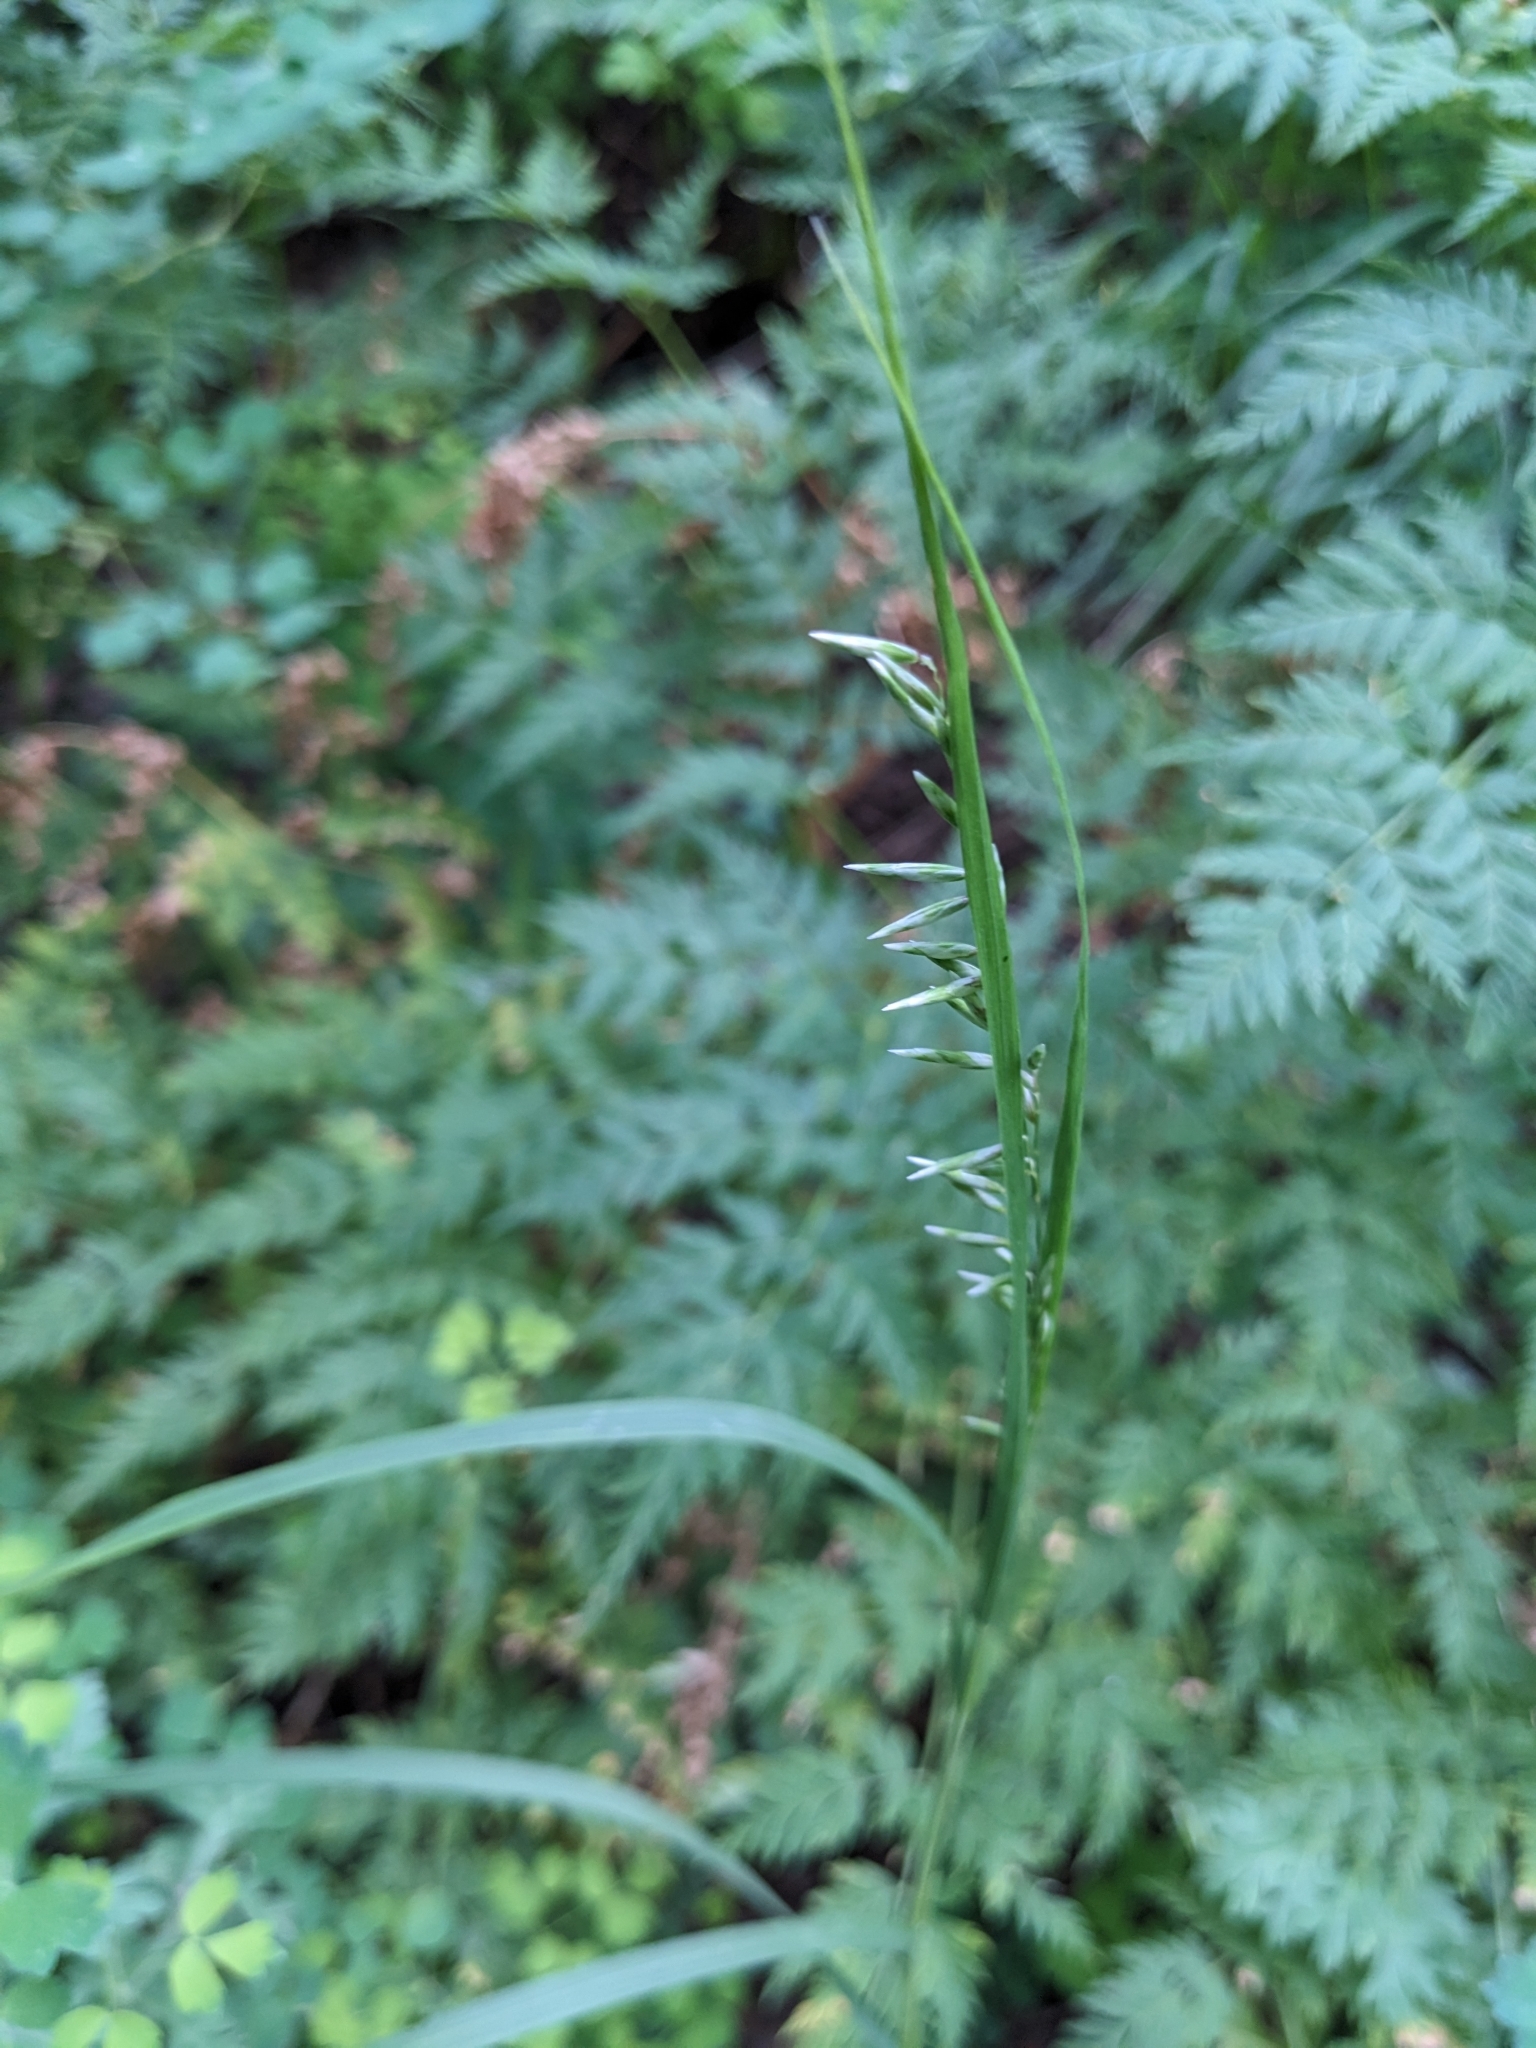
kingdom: Plantae
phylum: Tracheophyta
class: Liliopsida
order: Poales
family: Poaceae
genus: Bouteloua
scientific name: Bouteloua curtipendula
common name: Side-oats grama
